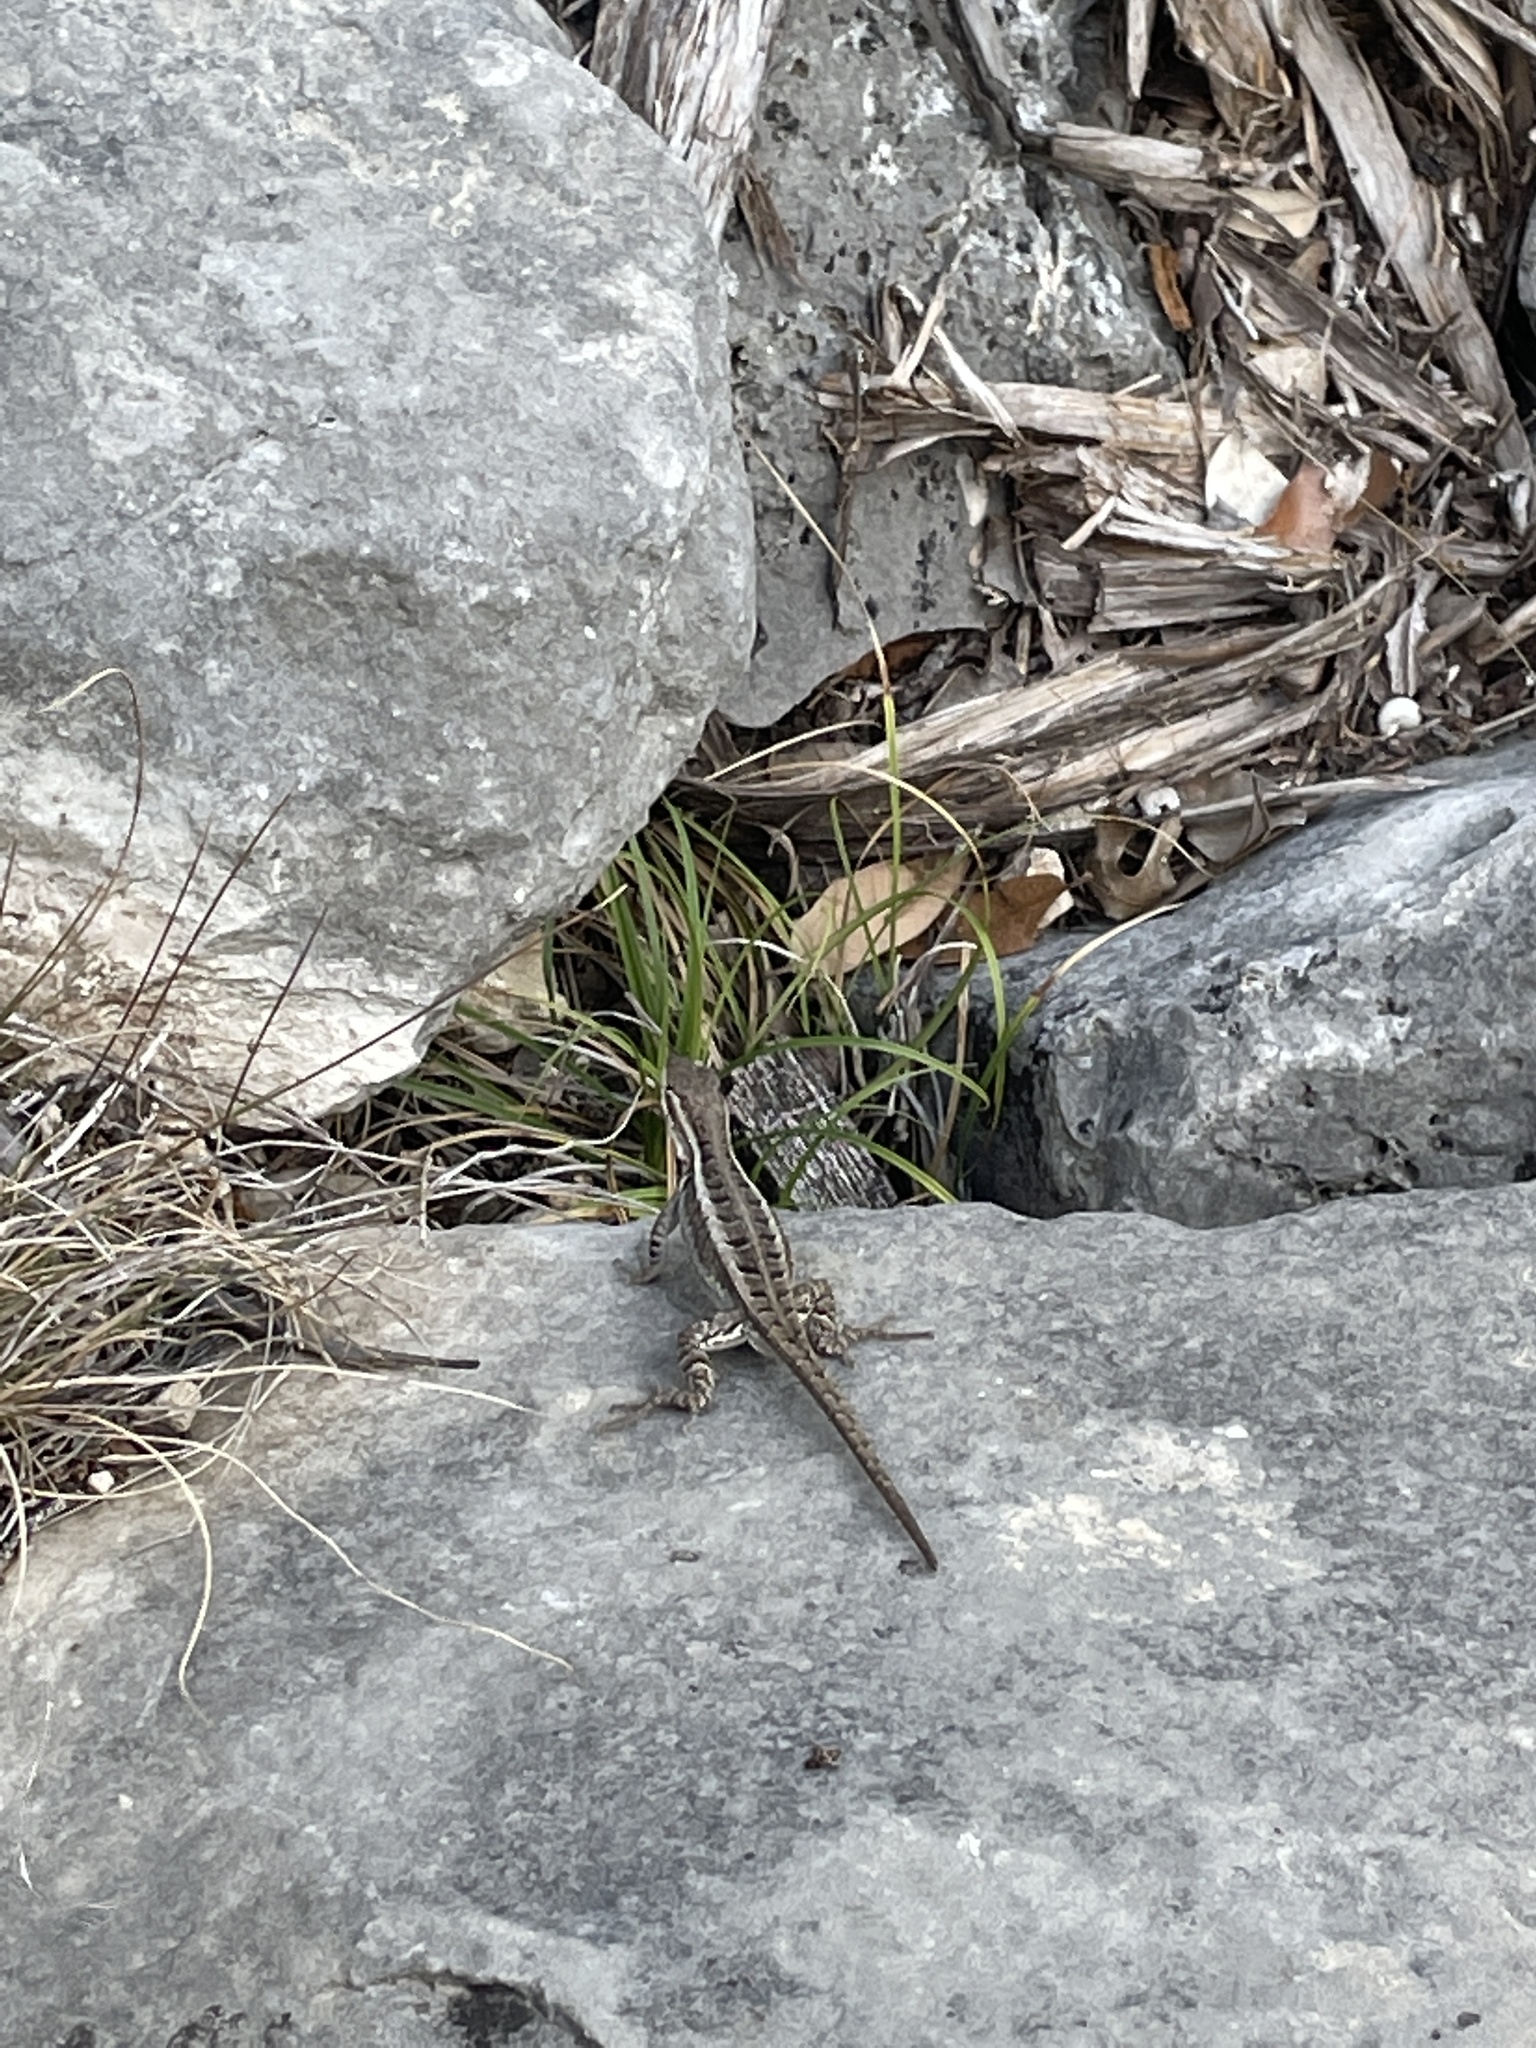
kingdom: Animalia
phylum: Chordata
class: Squamata
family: Phrynosomatidae
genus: Sceloporus
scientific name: Sceloporus variabilis
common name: Rosebelly lizard
